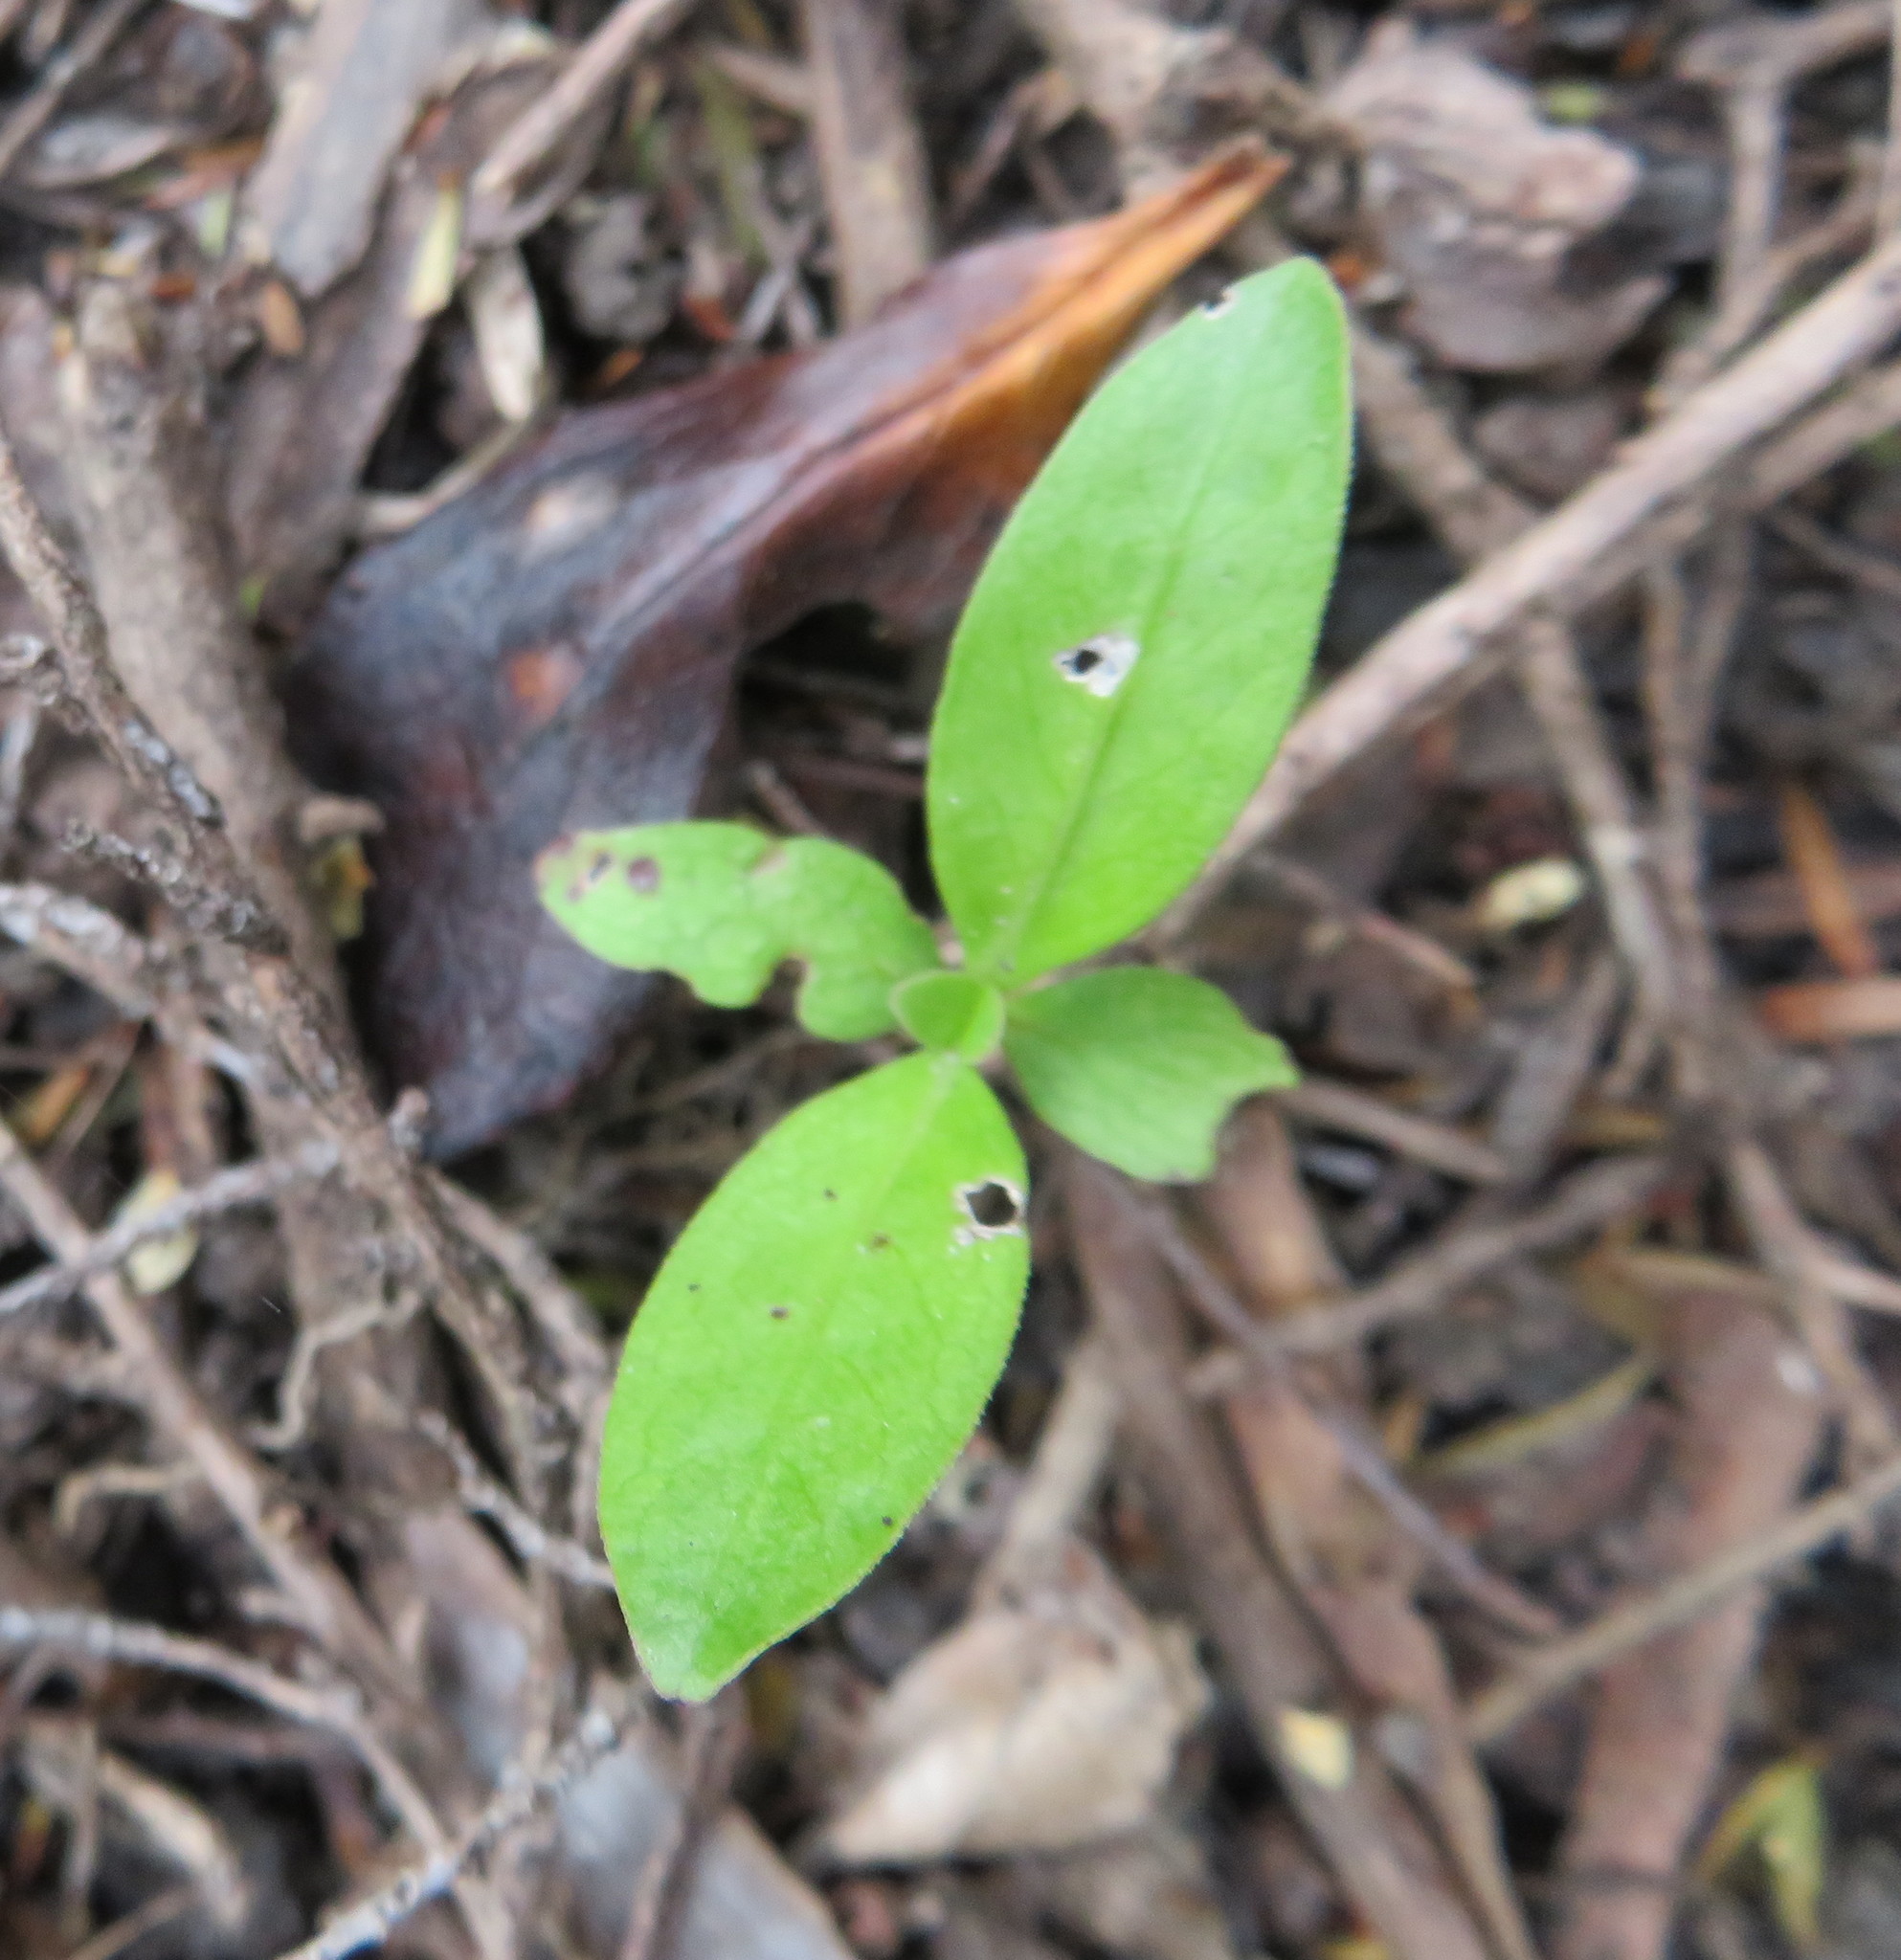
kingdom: Plantae
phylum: Tracheophyta
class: Magnoliopsida
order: Gentianales
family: Rubiaceae
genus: Coprosma
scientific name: Coprosma robusta
